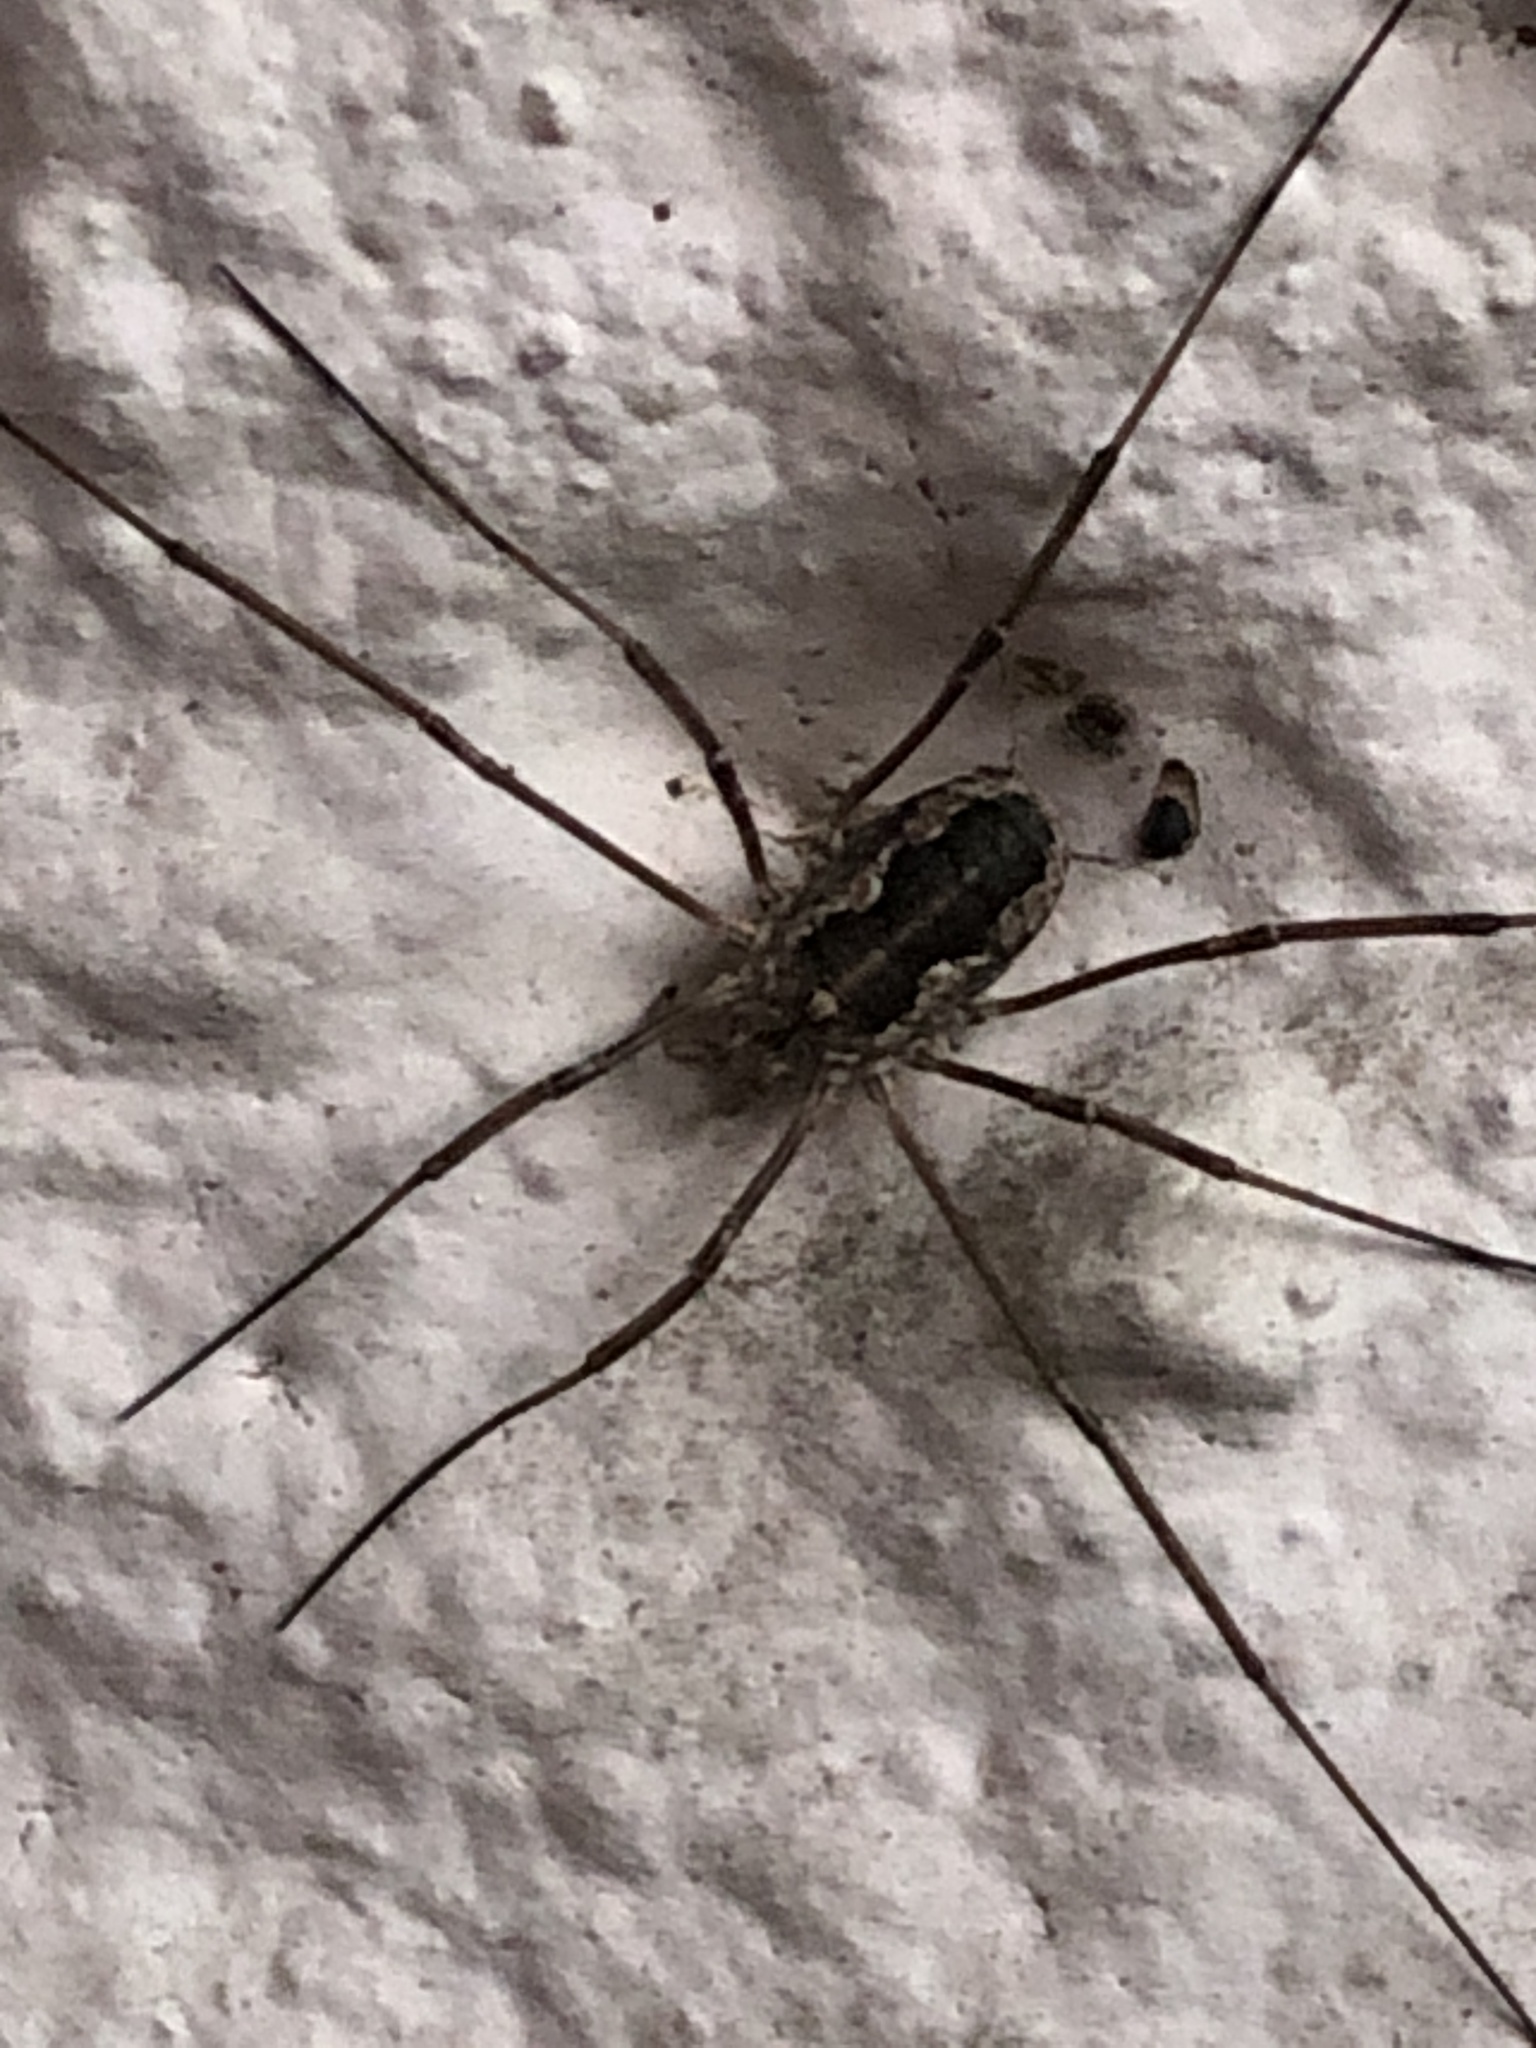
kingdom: Animalia
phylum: Arthropoda
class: Arachnida
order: Opiliones
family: Phalangiidae
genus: Phalangium
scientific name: Phalangium opilio
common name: Daddy longleg
